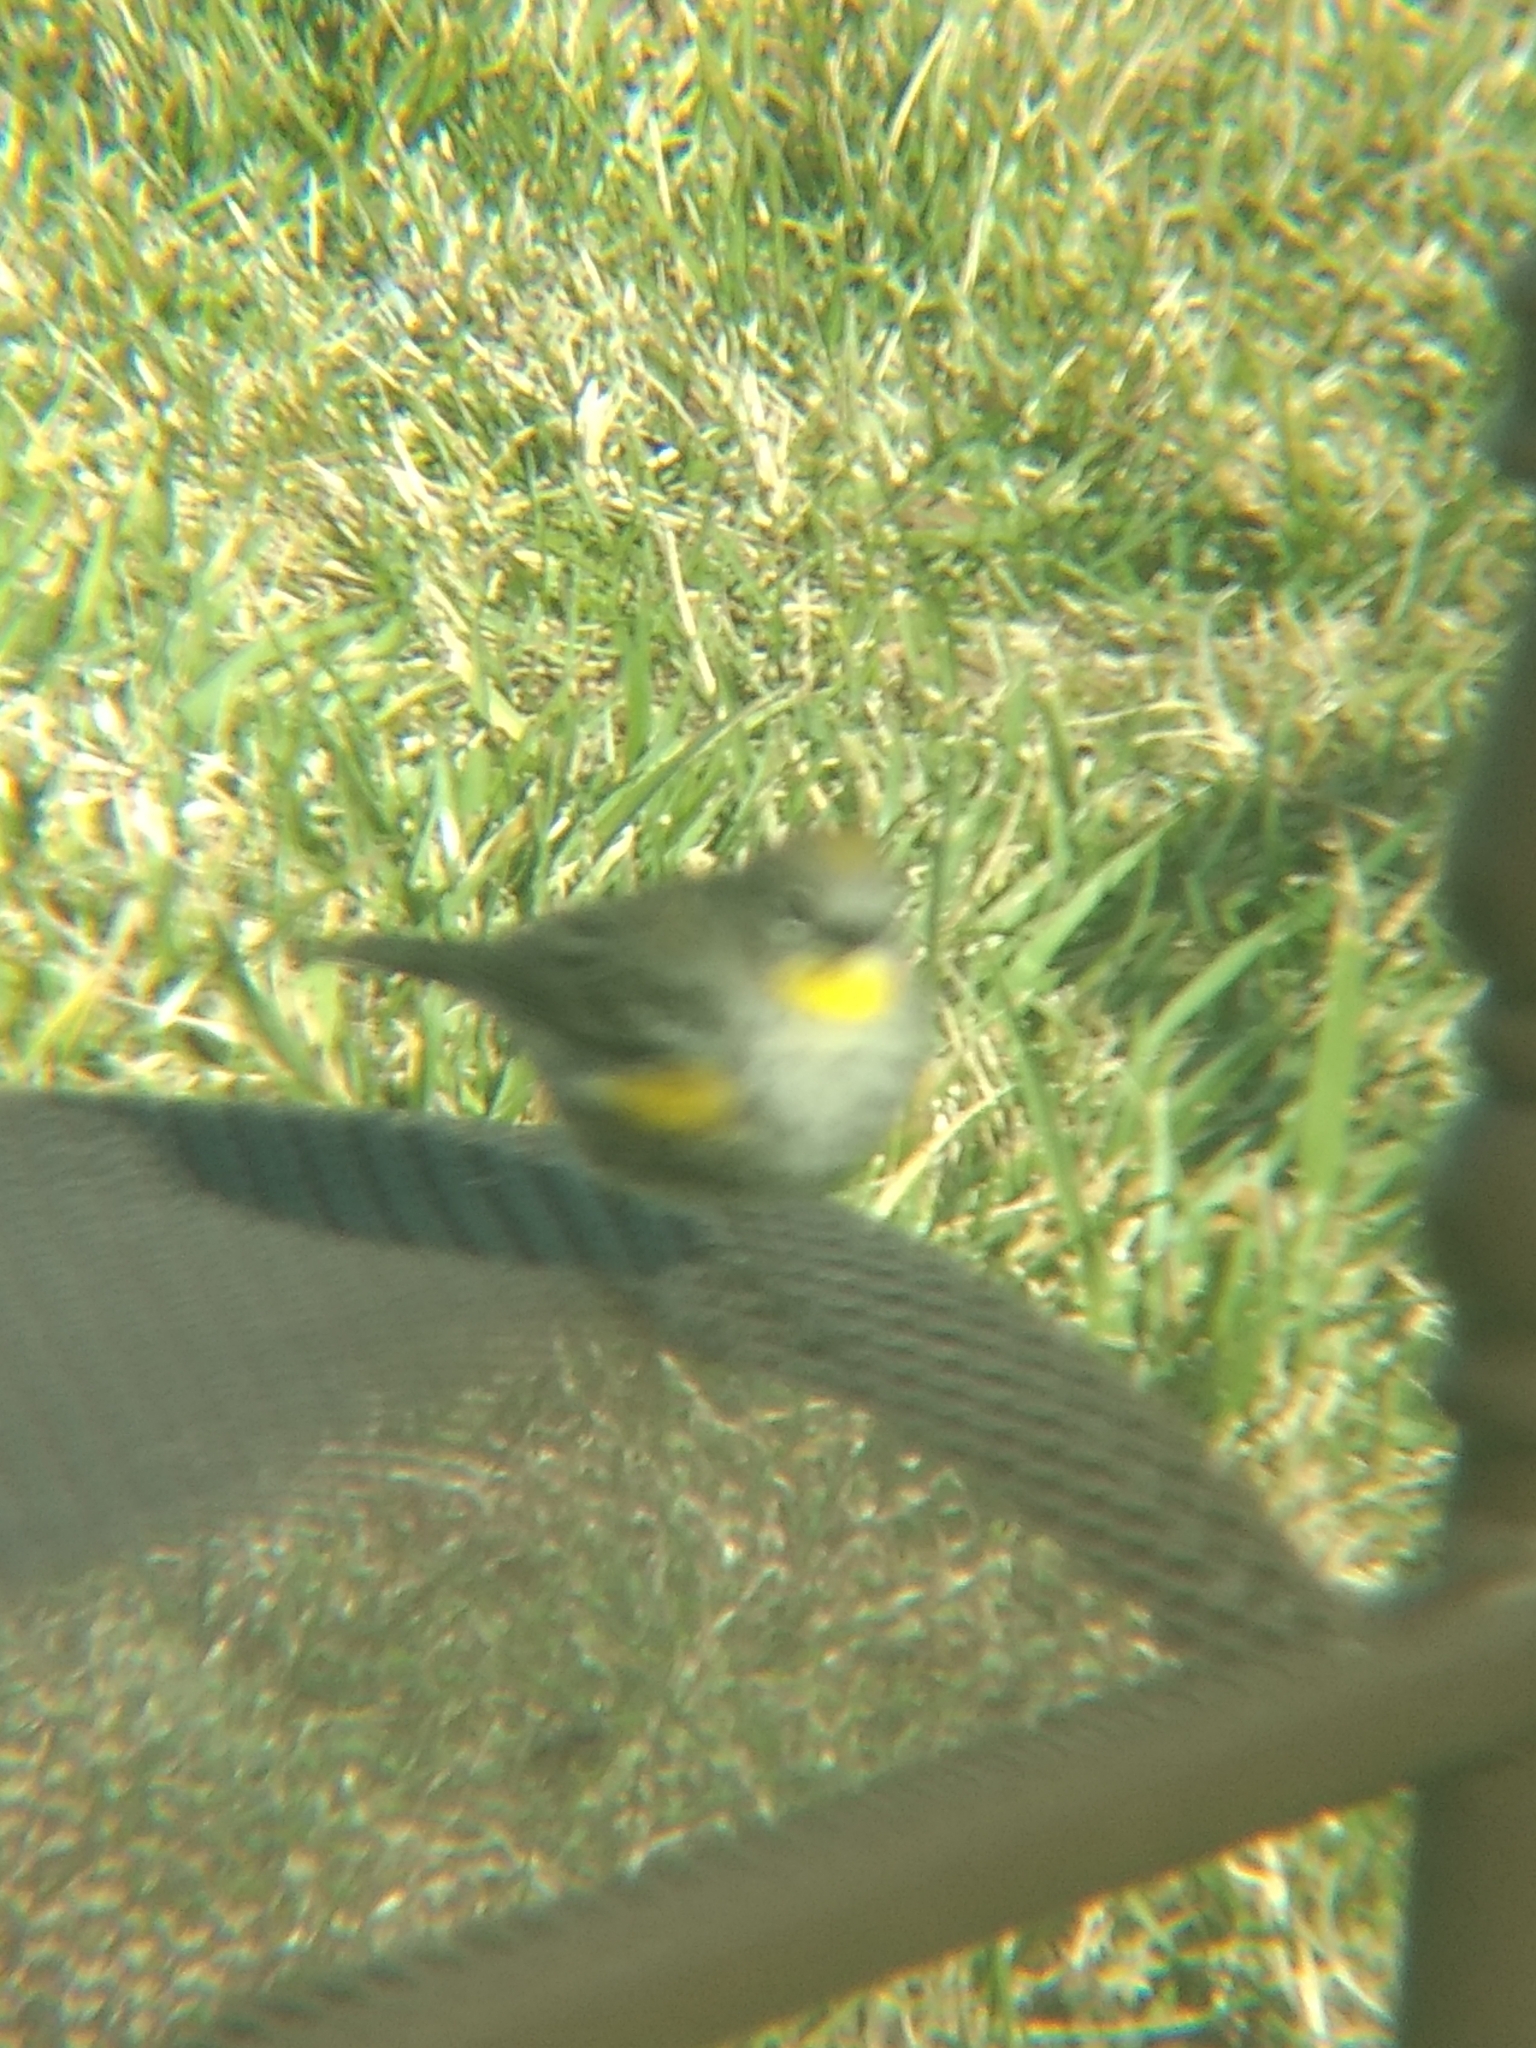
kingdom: Animalia
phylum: Chordata
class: Aves
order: Passeriformes
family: Parulidae
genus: Setophaga
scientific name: Setophaga coronata
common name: Myrtle warbler
